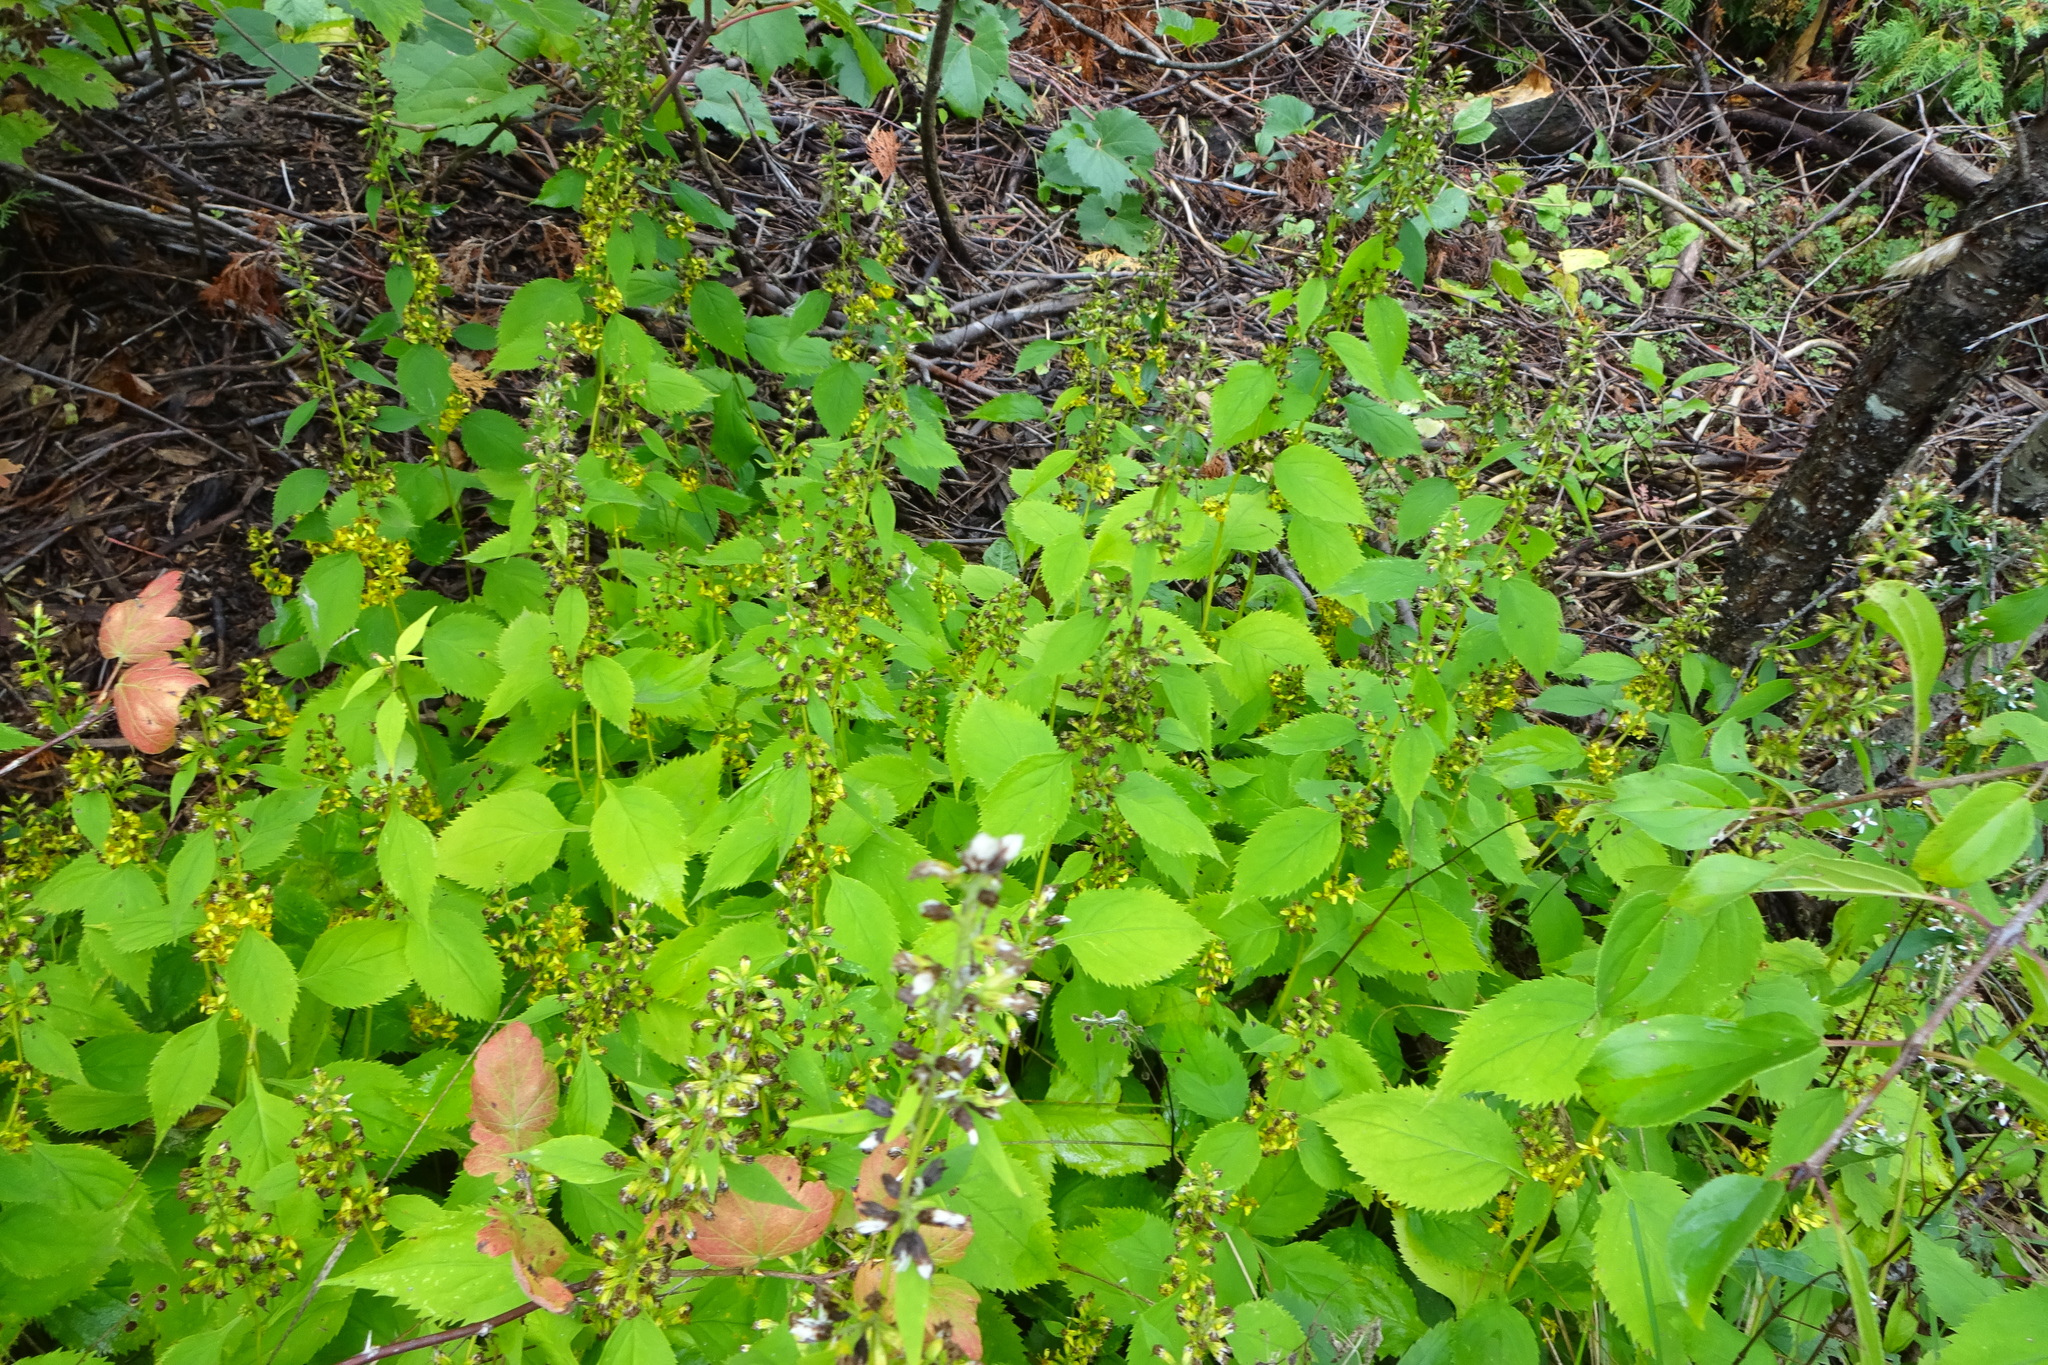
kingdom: Plantae
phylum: Tracheophyta
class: Magnoliopsida
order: Asterales
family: Asteraceae
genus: Solidago
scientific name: Solidago flexicaulis
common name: Zig-zag goldenrod
